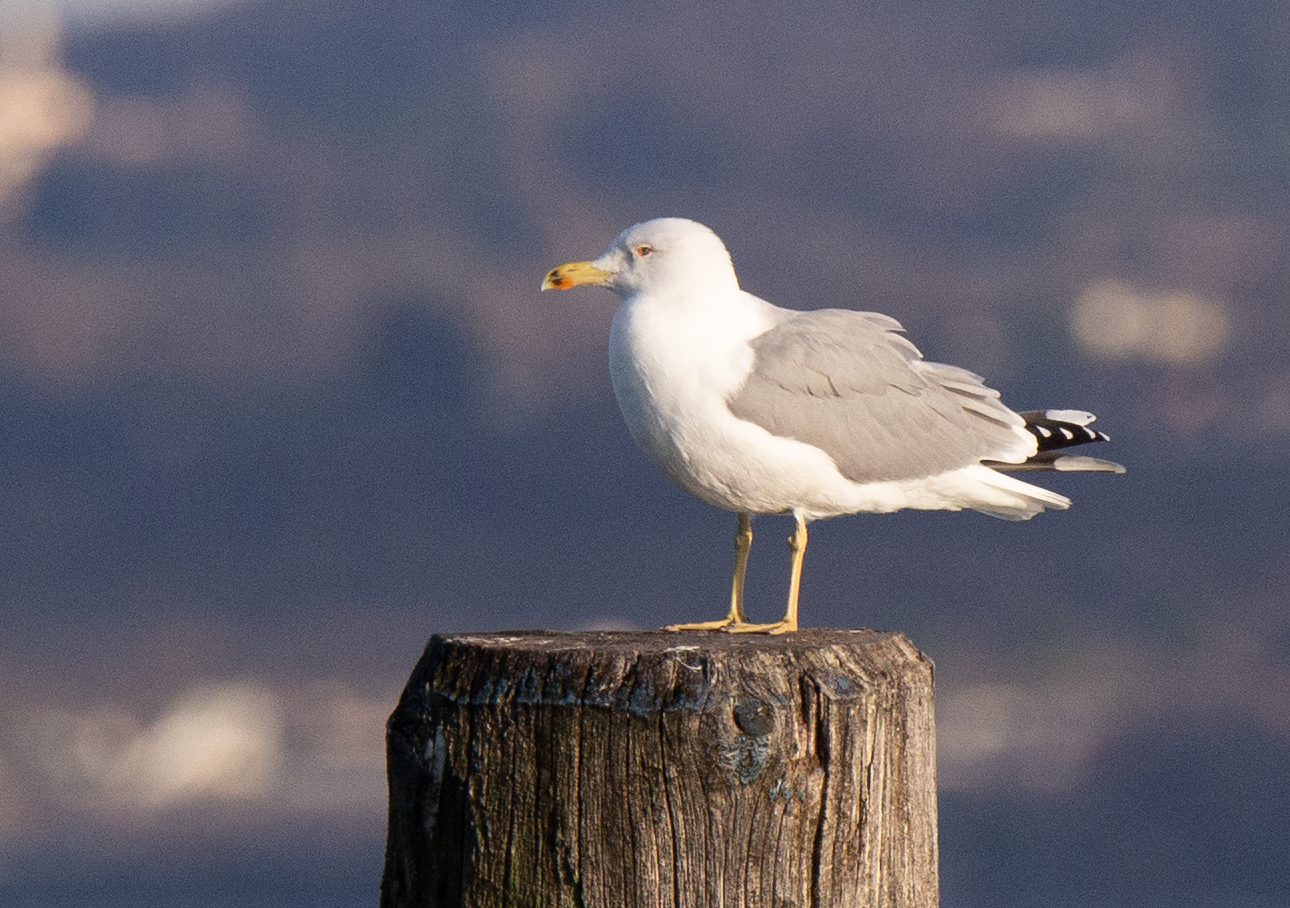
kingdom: Animalia
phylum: Chordata
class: Aves
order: Charadriiformes
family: Laridae
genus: Larus
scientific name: Larus michahellis
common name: Yellow-legged gull
